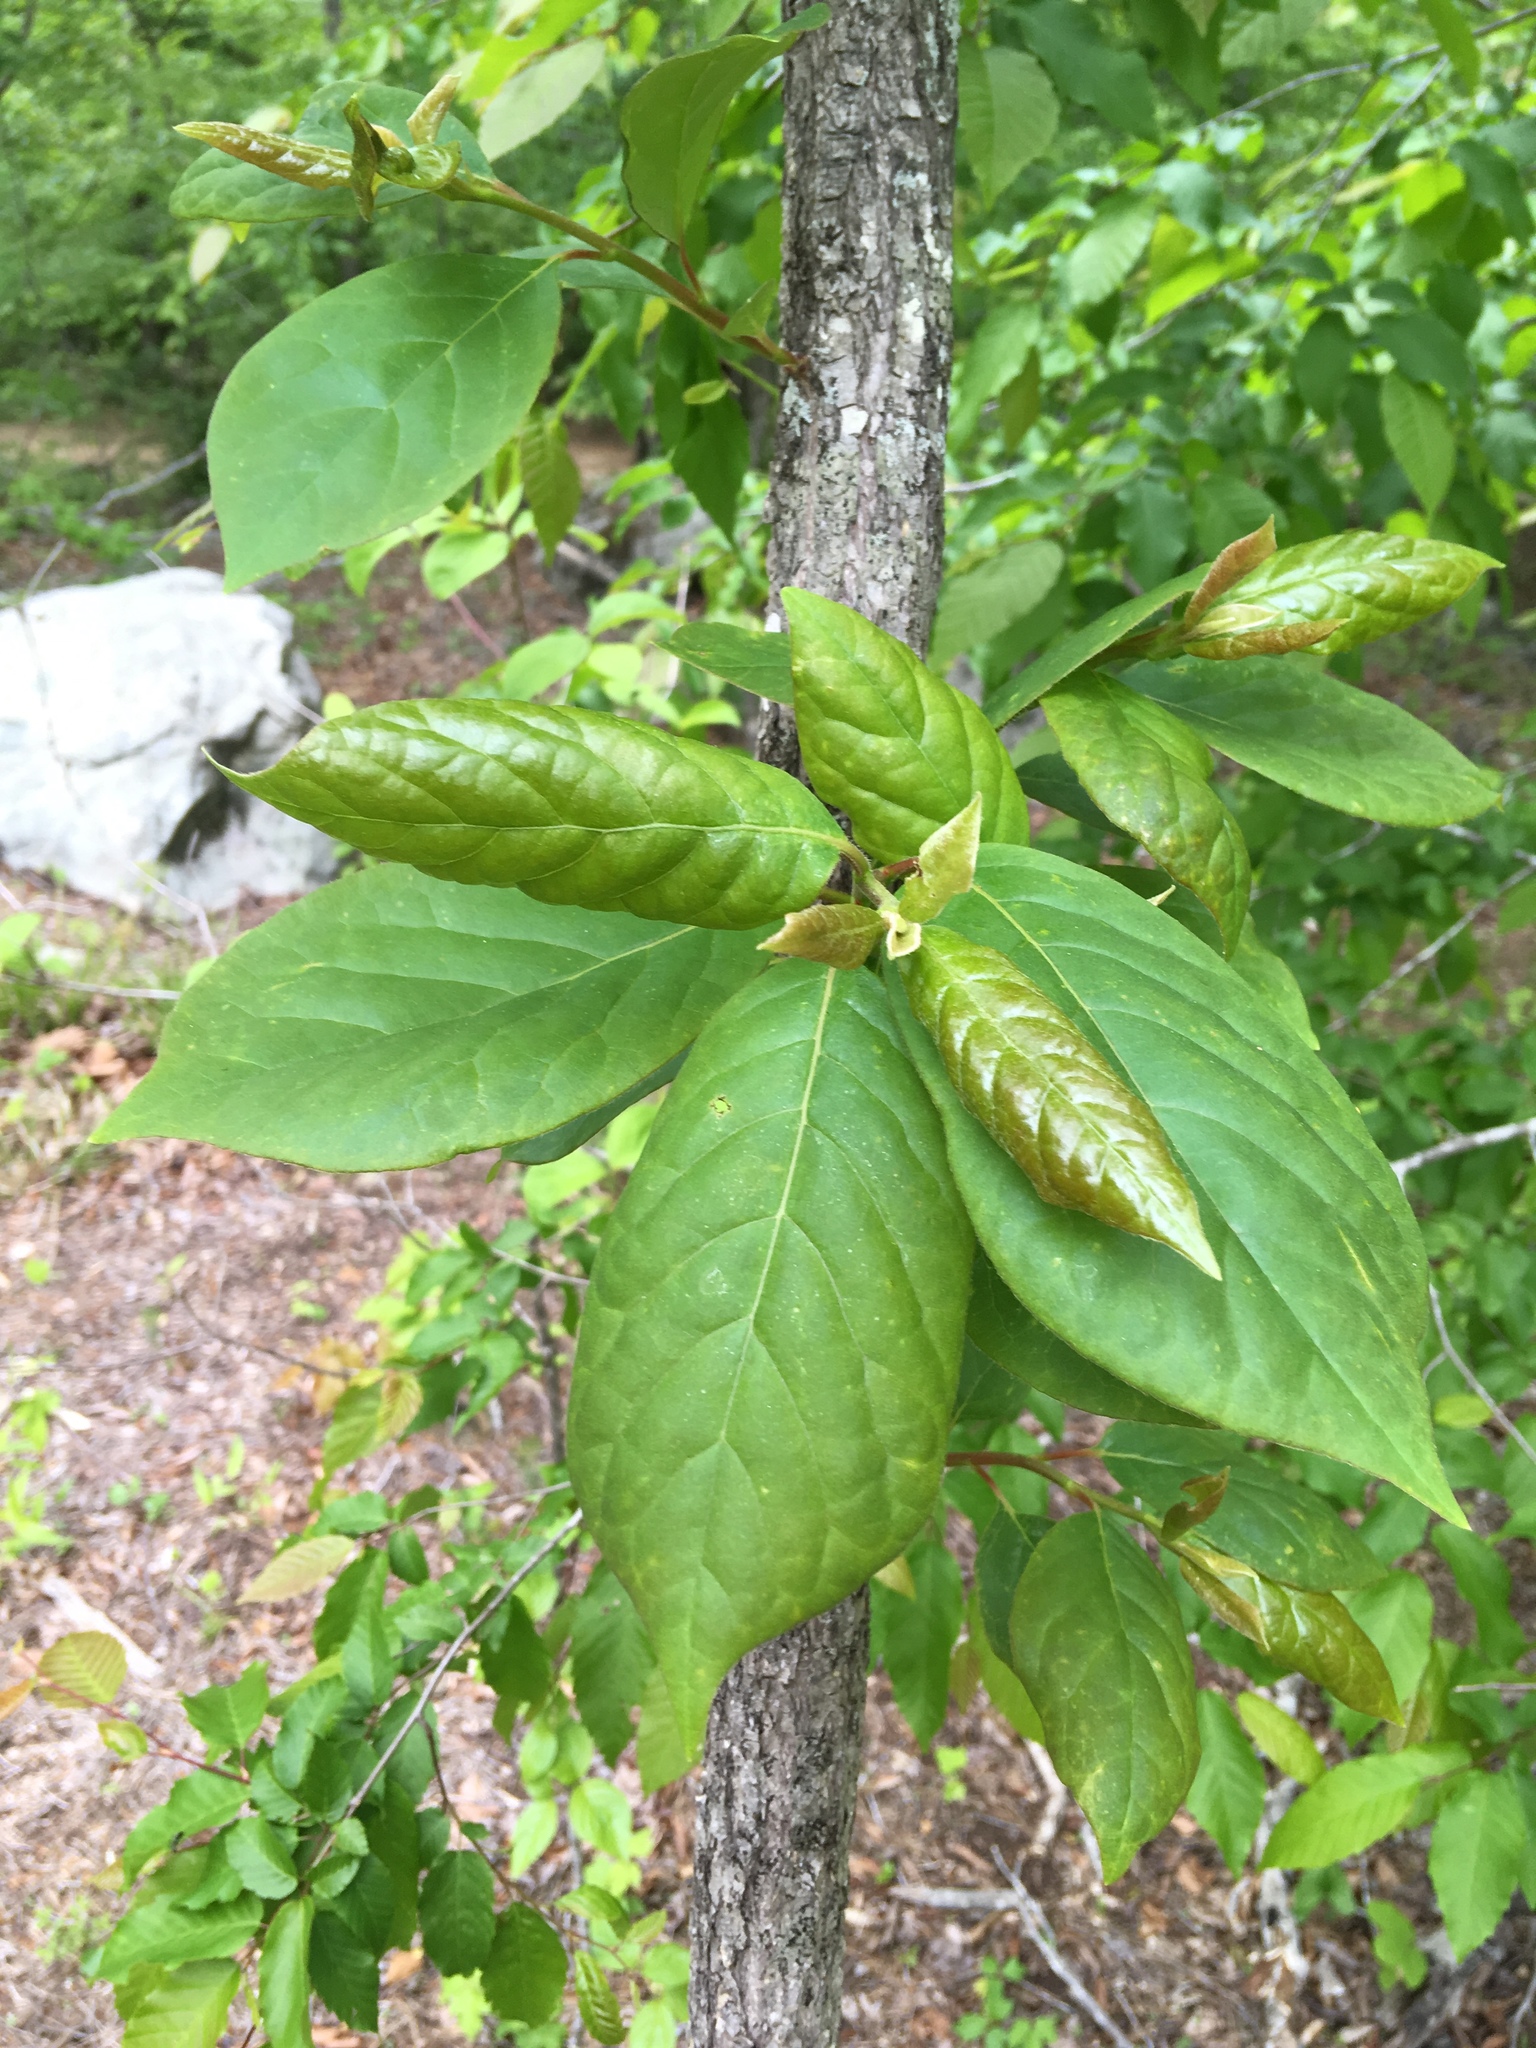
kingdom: Plantae
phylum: Tracheophyta
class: Magnoliopsida
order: Cornales
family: Nyssaceae
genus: Nyssa
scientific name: Nyssa sylvatica
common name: Black tupelo
